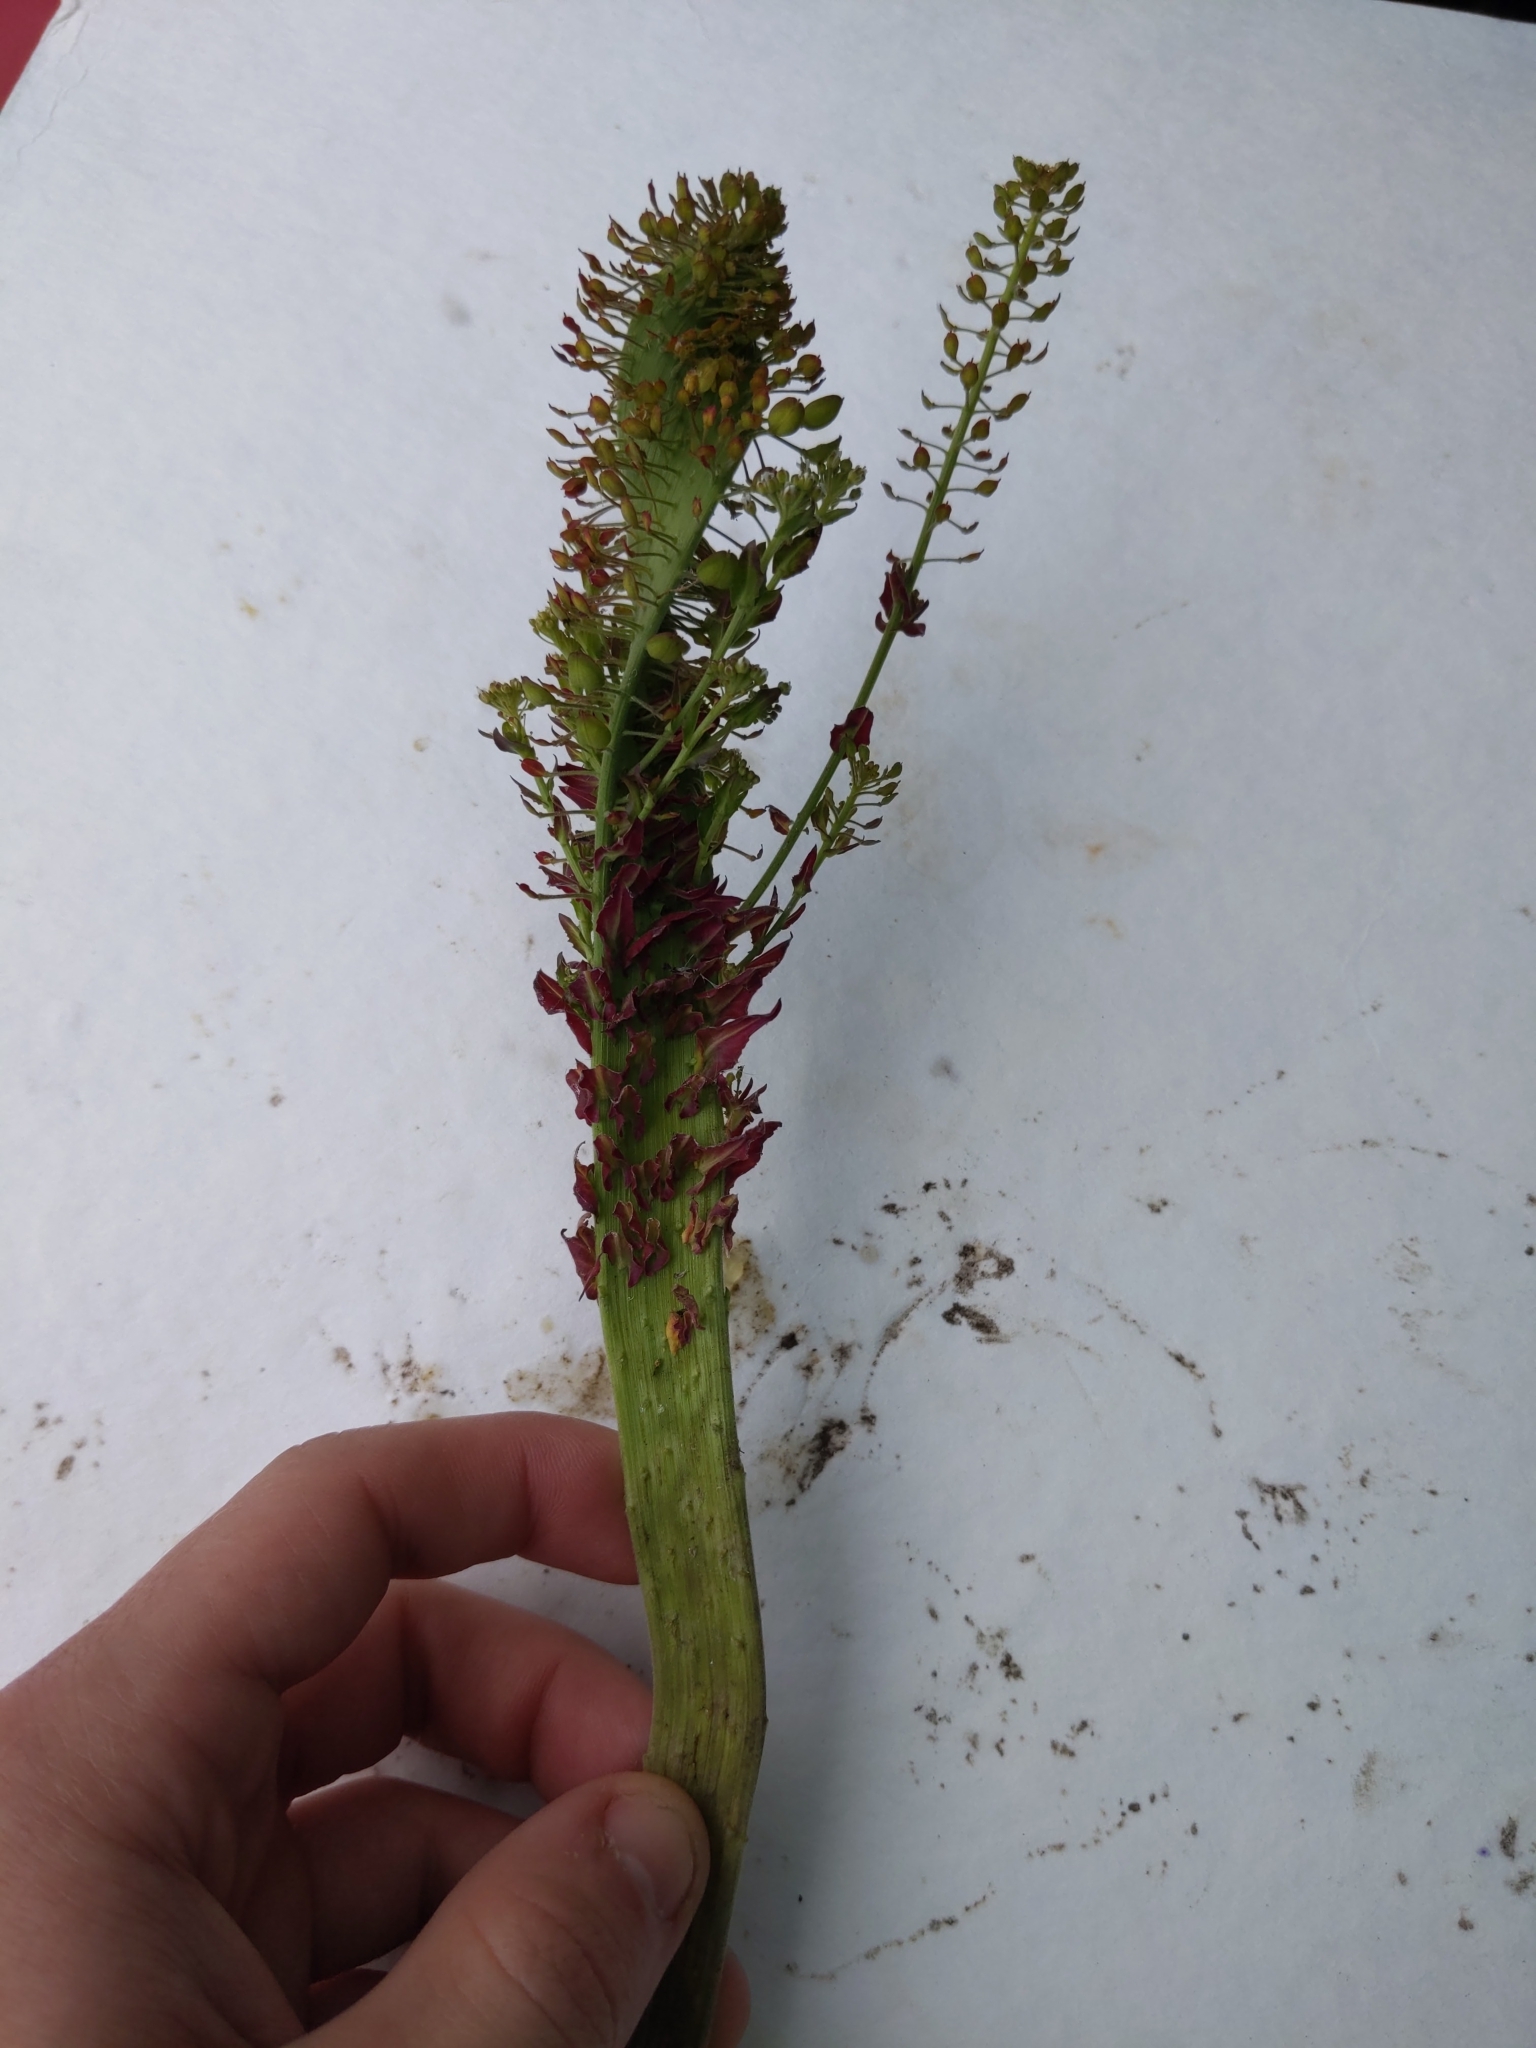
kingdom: Plantae
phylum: Tracheophyta
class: Magnoliopsida
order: Brassicales
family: Brassicaceae
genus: Lepidium
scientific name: Lepidium campestre
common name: Field pepperwort
